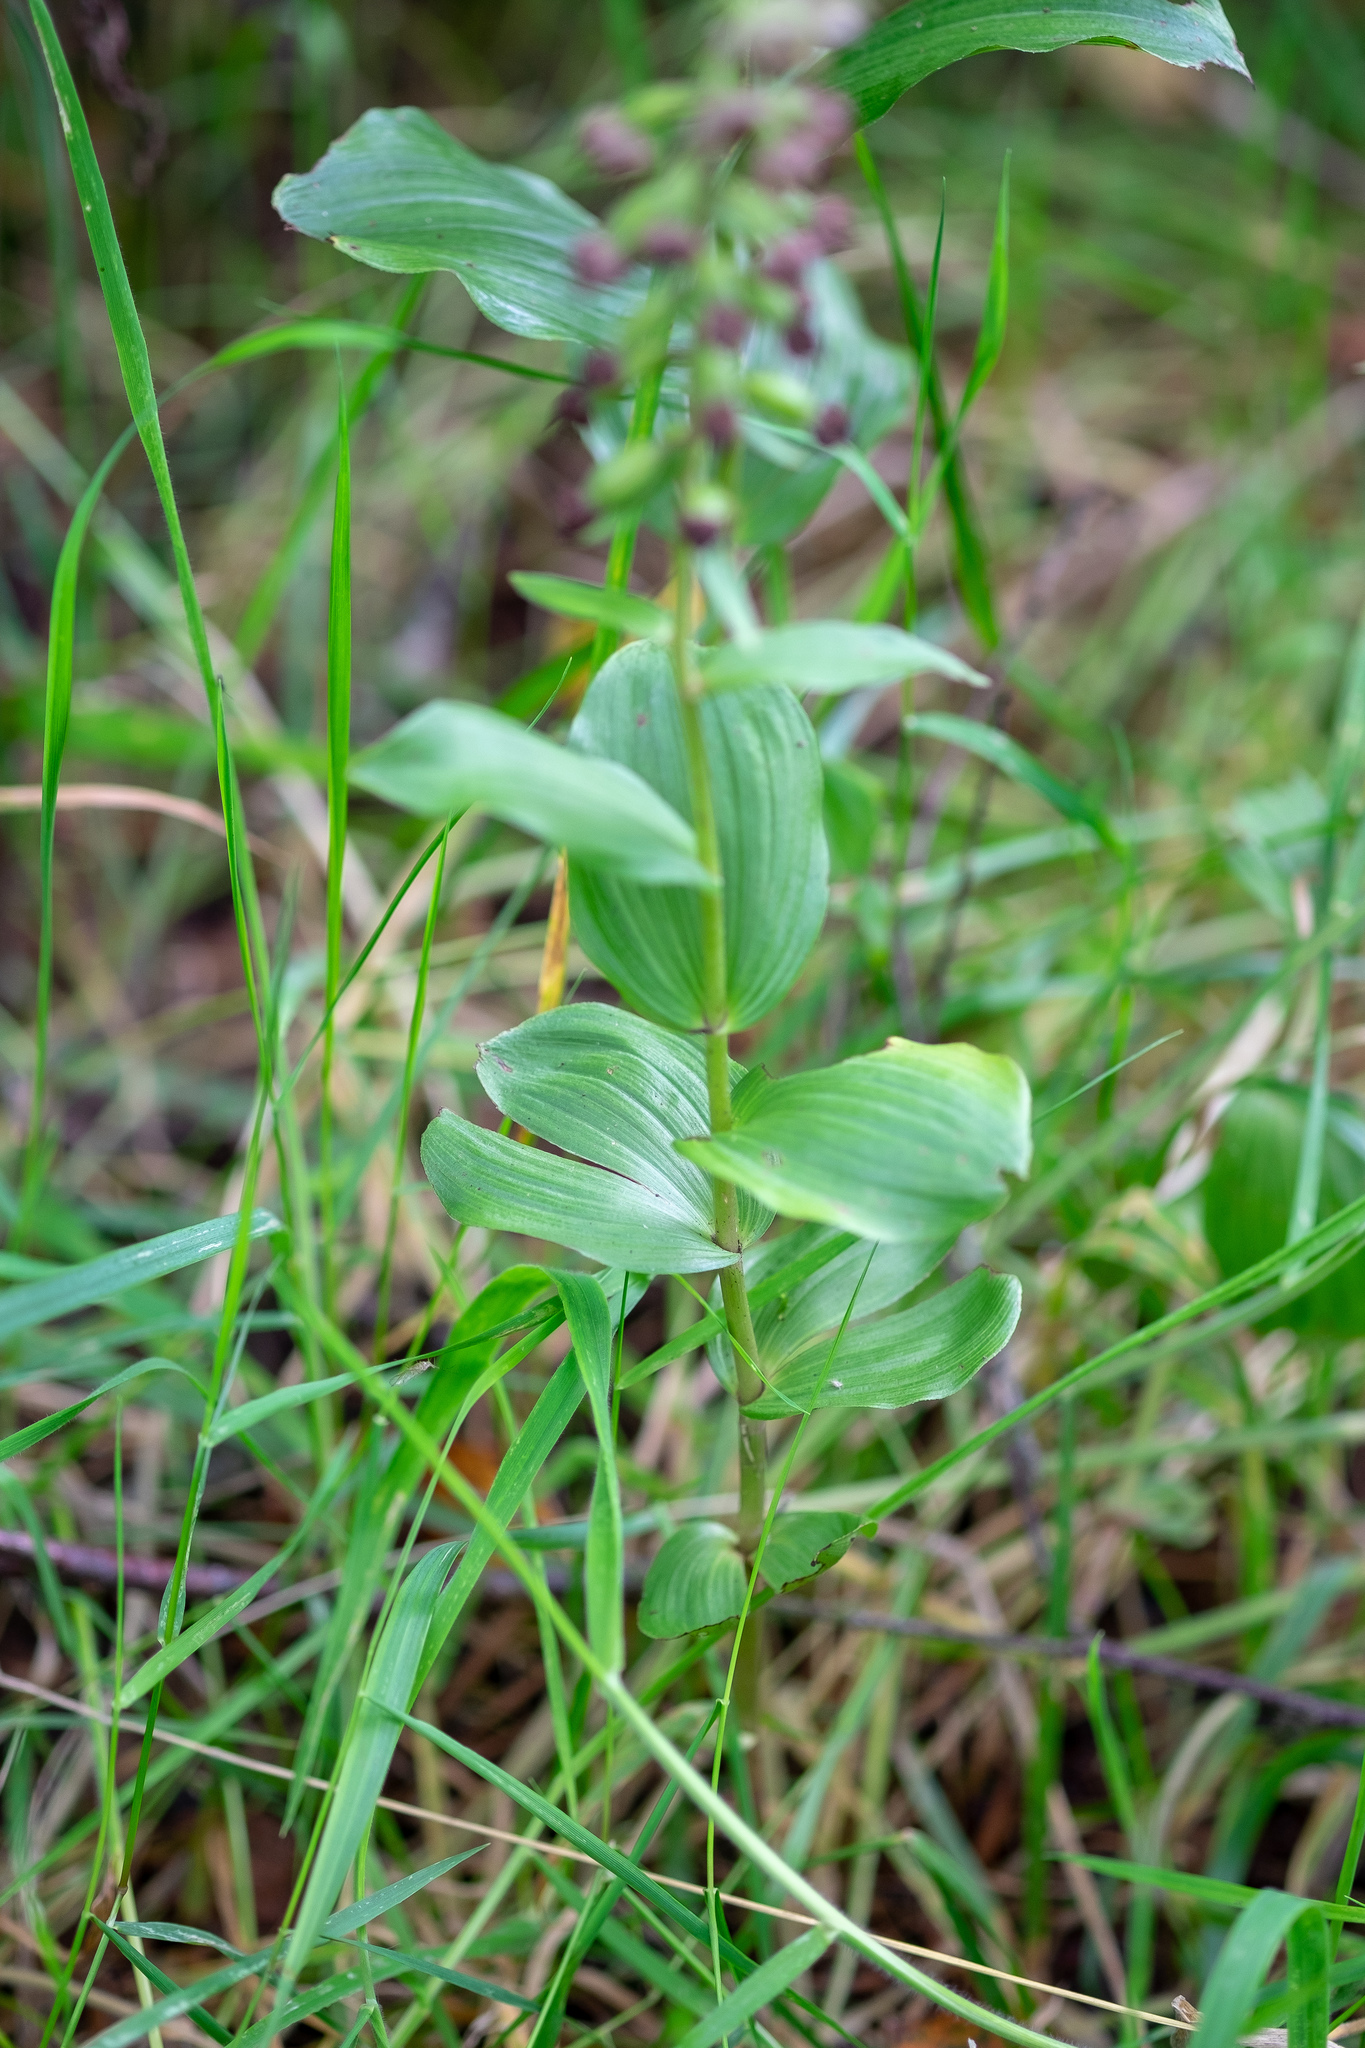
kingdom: Plantae
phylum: Tracheophyta
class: Liliopsida
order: Asparagales
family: Orchidaceae
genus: Epipactis
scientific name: Epipactis helleborine
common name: Broad-leaved helleborine
